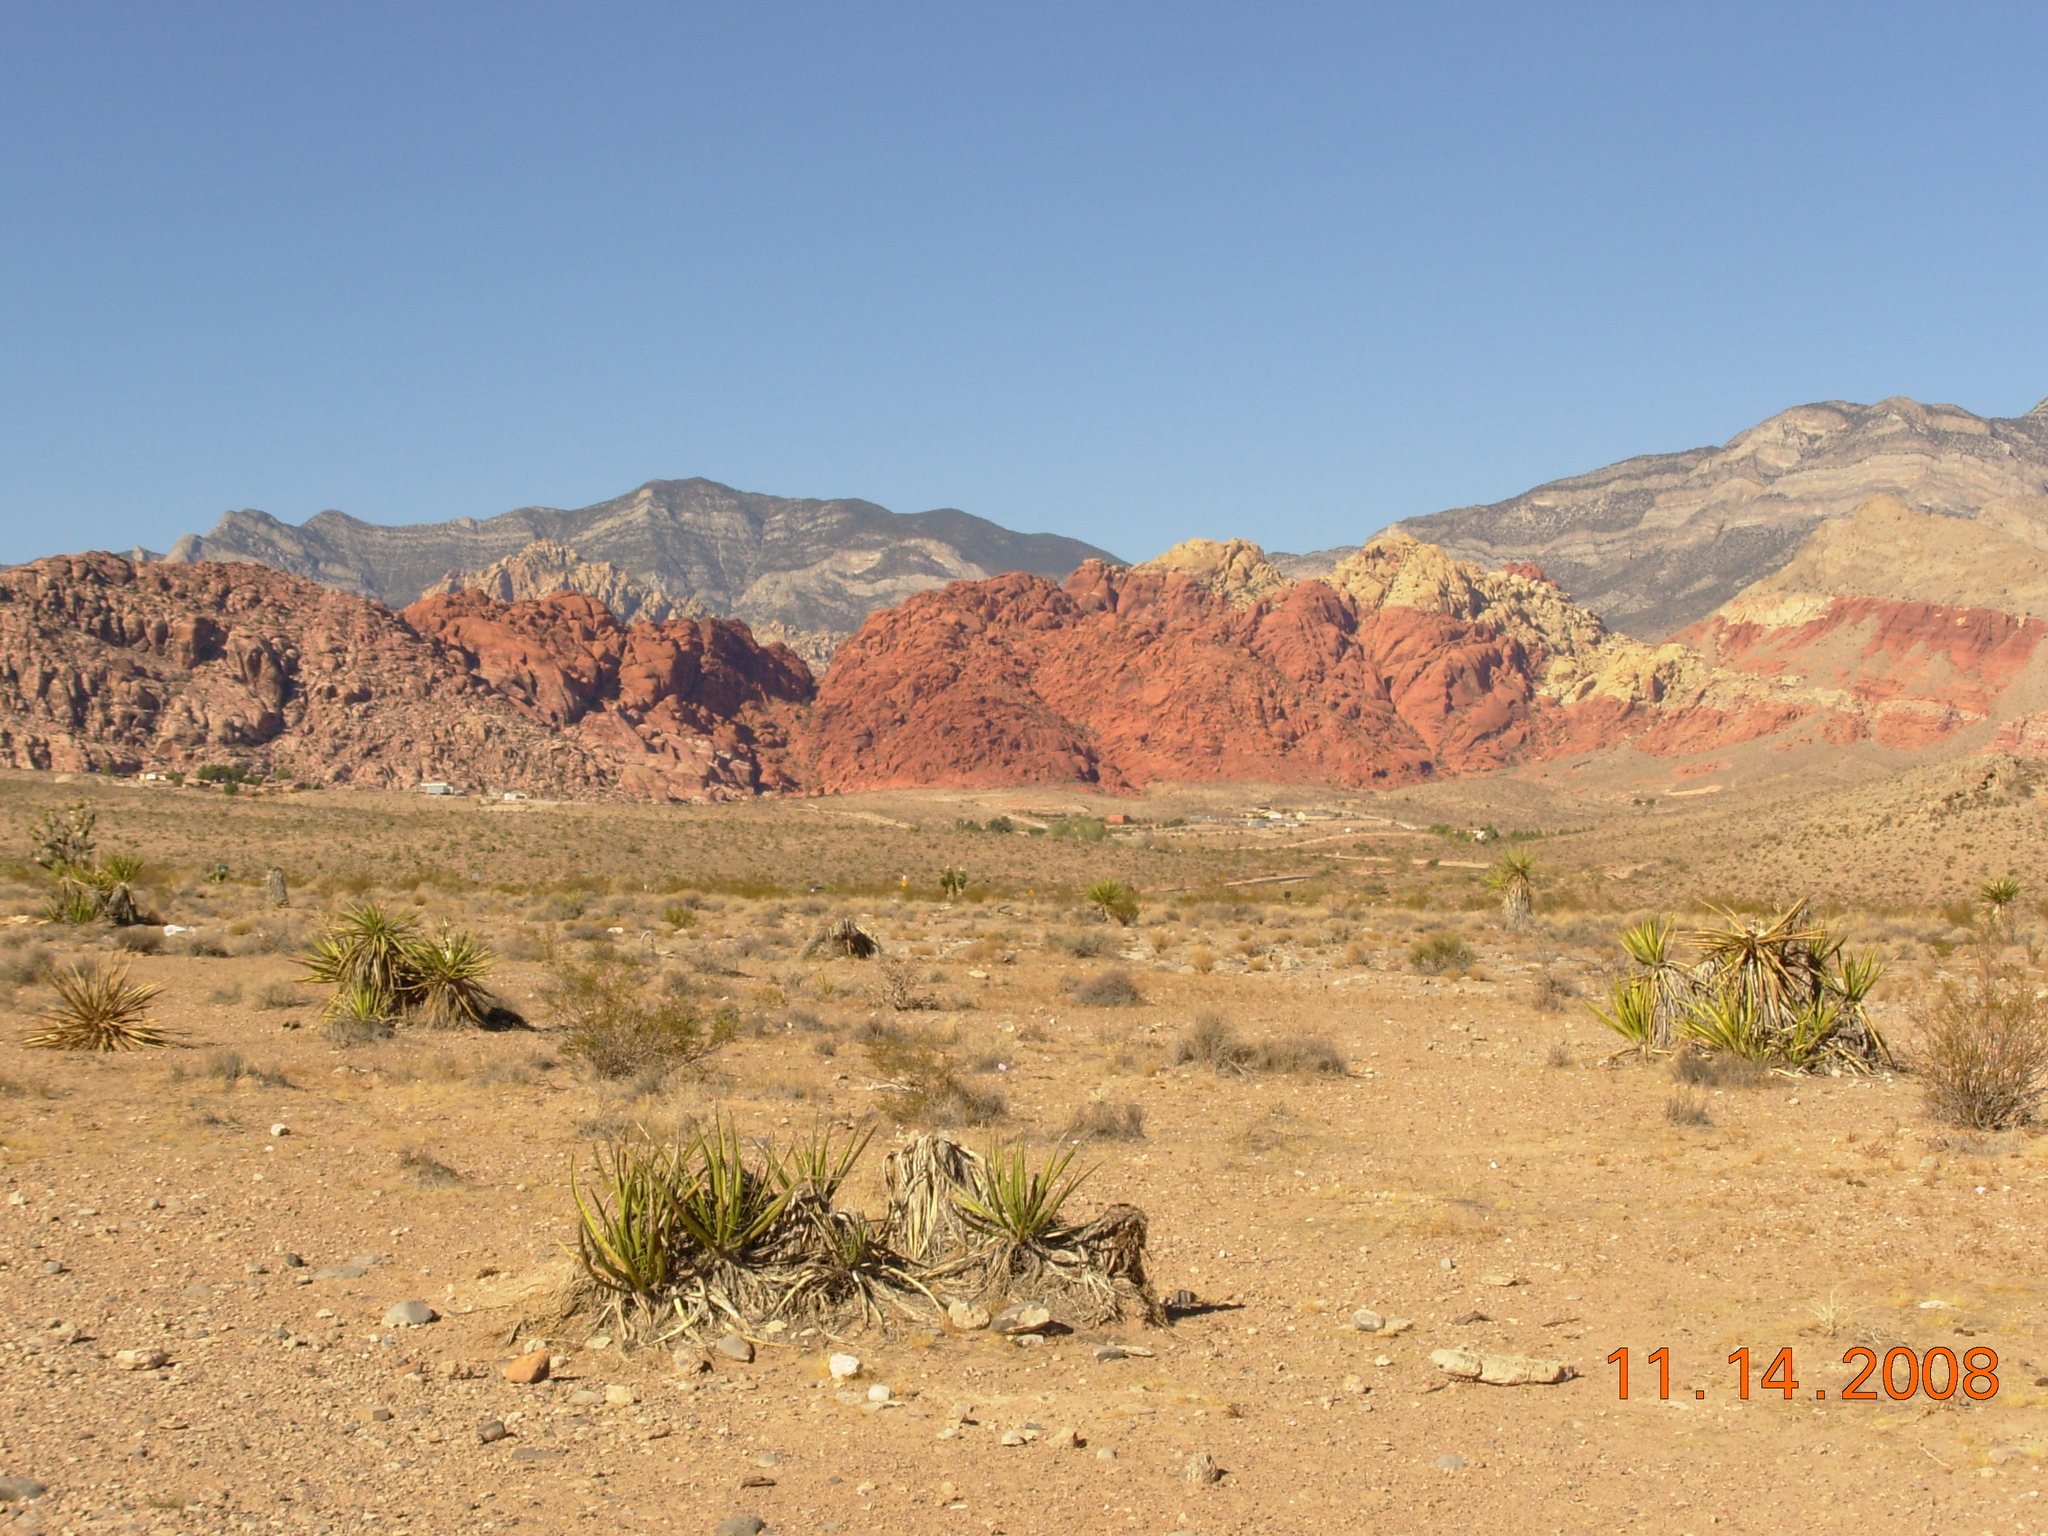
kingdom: Plantae
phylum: Tracheophyta
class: Liliopsida
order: Asparagales
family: Asparagaceae
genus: Yucca
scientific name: Yucca schidigera
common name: Mojave yucca
